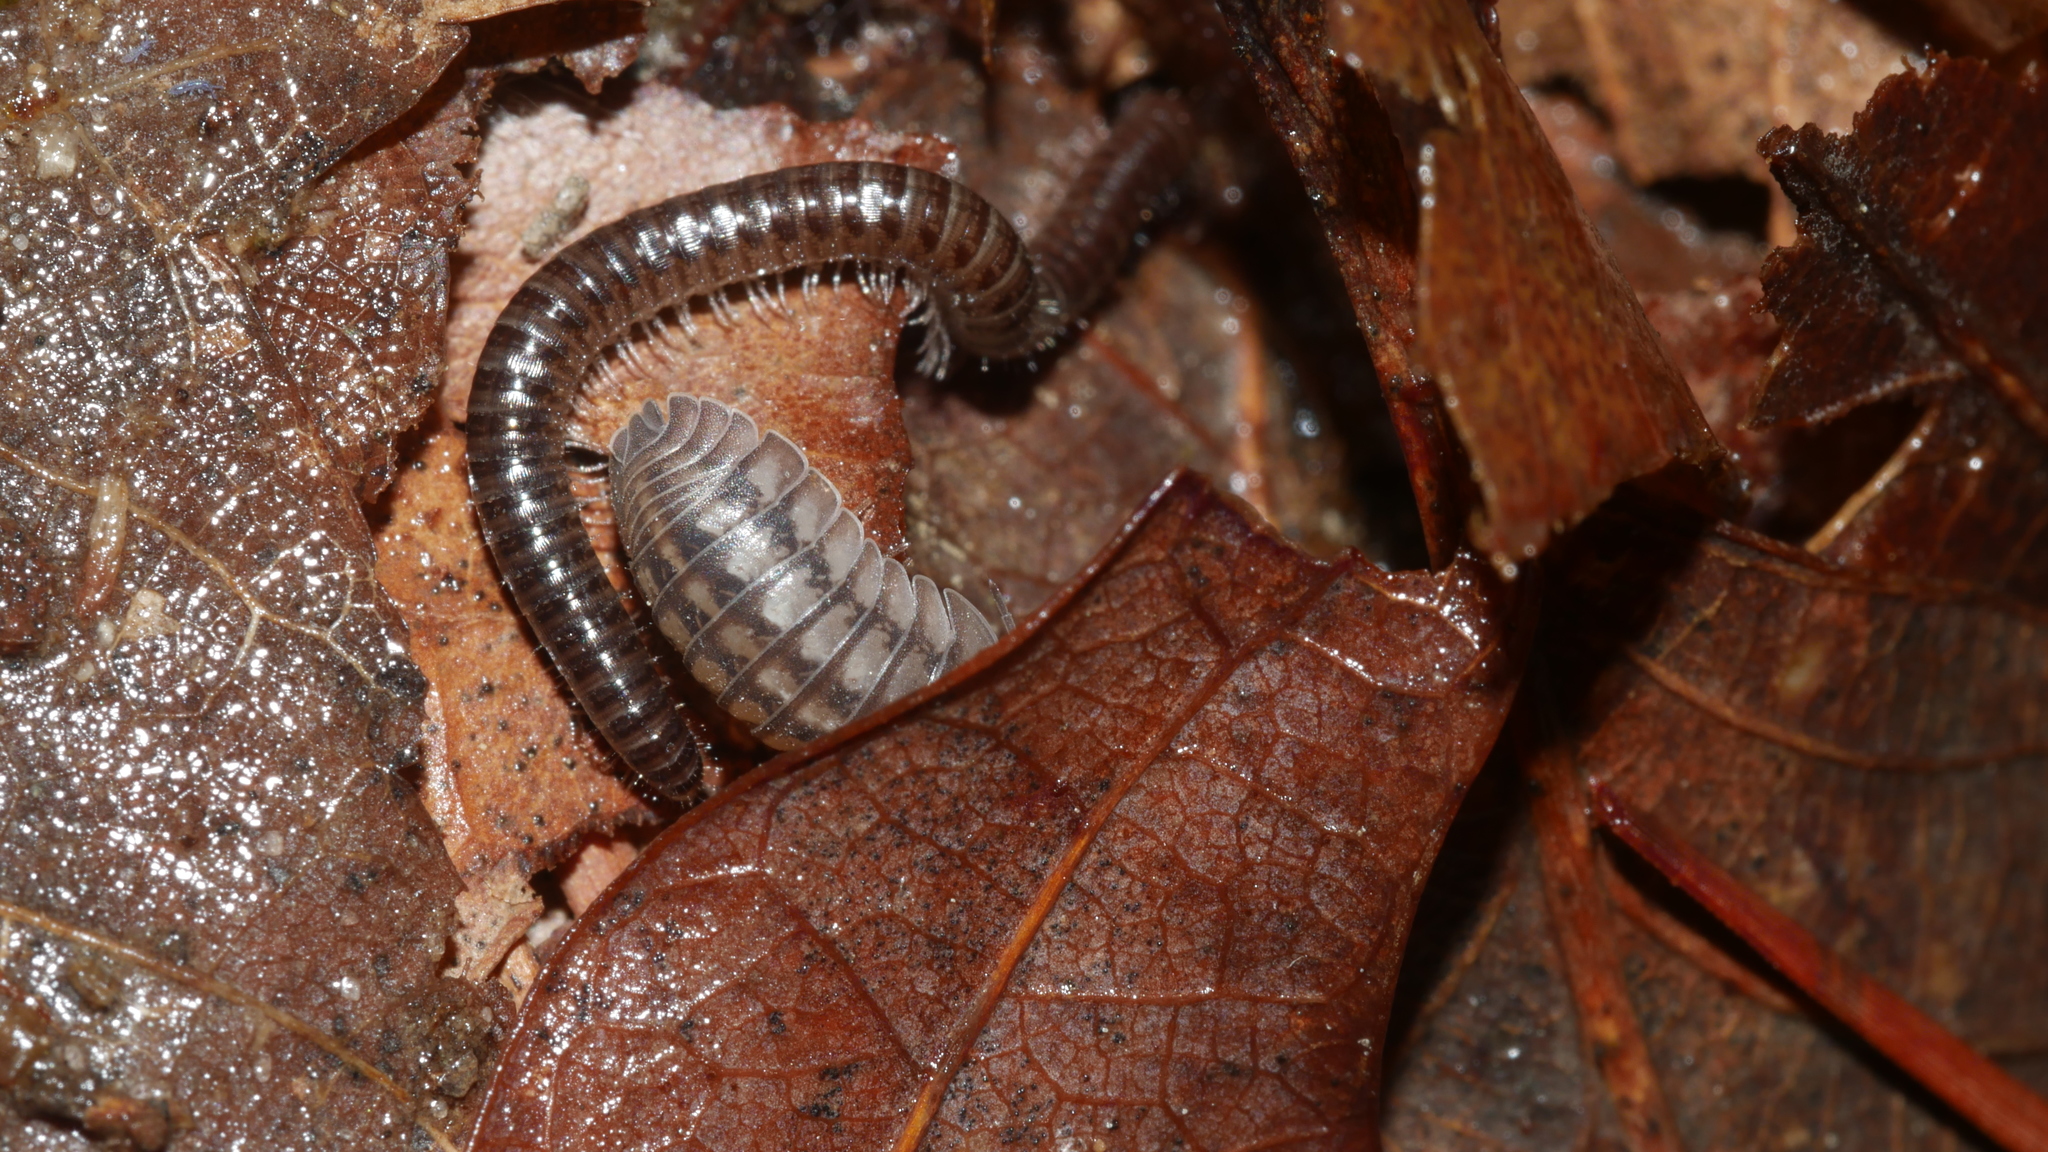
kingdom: Animalia
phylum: Arthropoda
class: Malacostraca
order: Isopoda
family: Armadillidiidae
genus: Armadillidium
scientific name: Armadillidium nasatum
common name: Isopod
